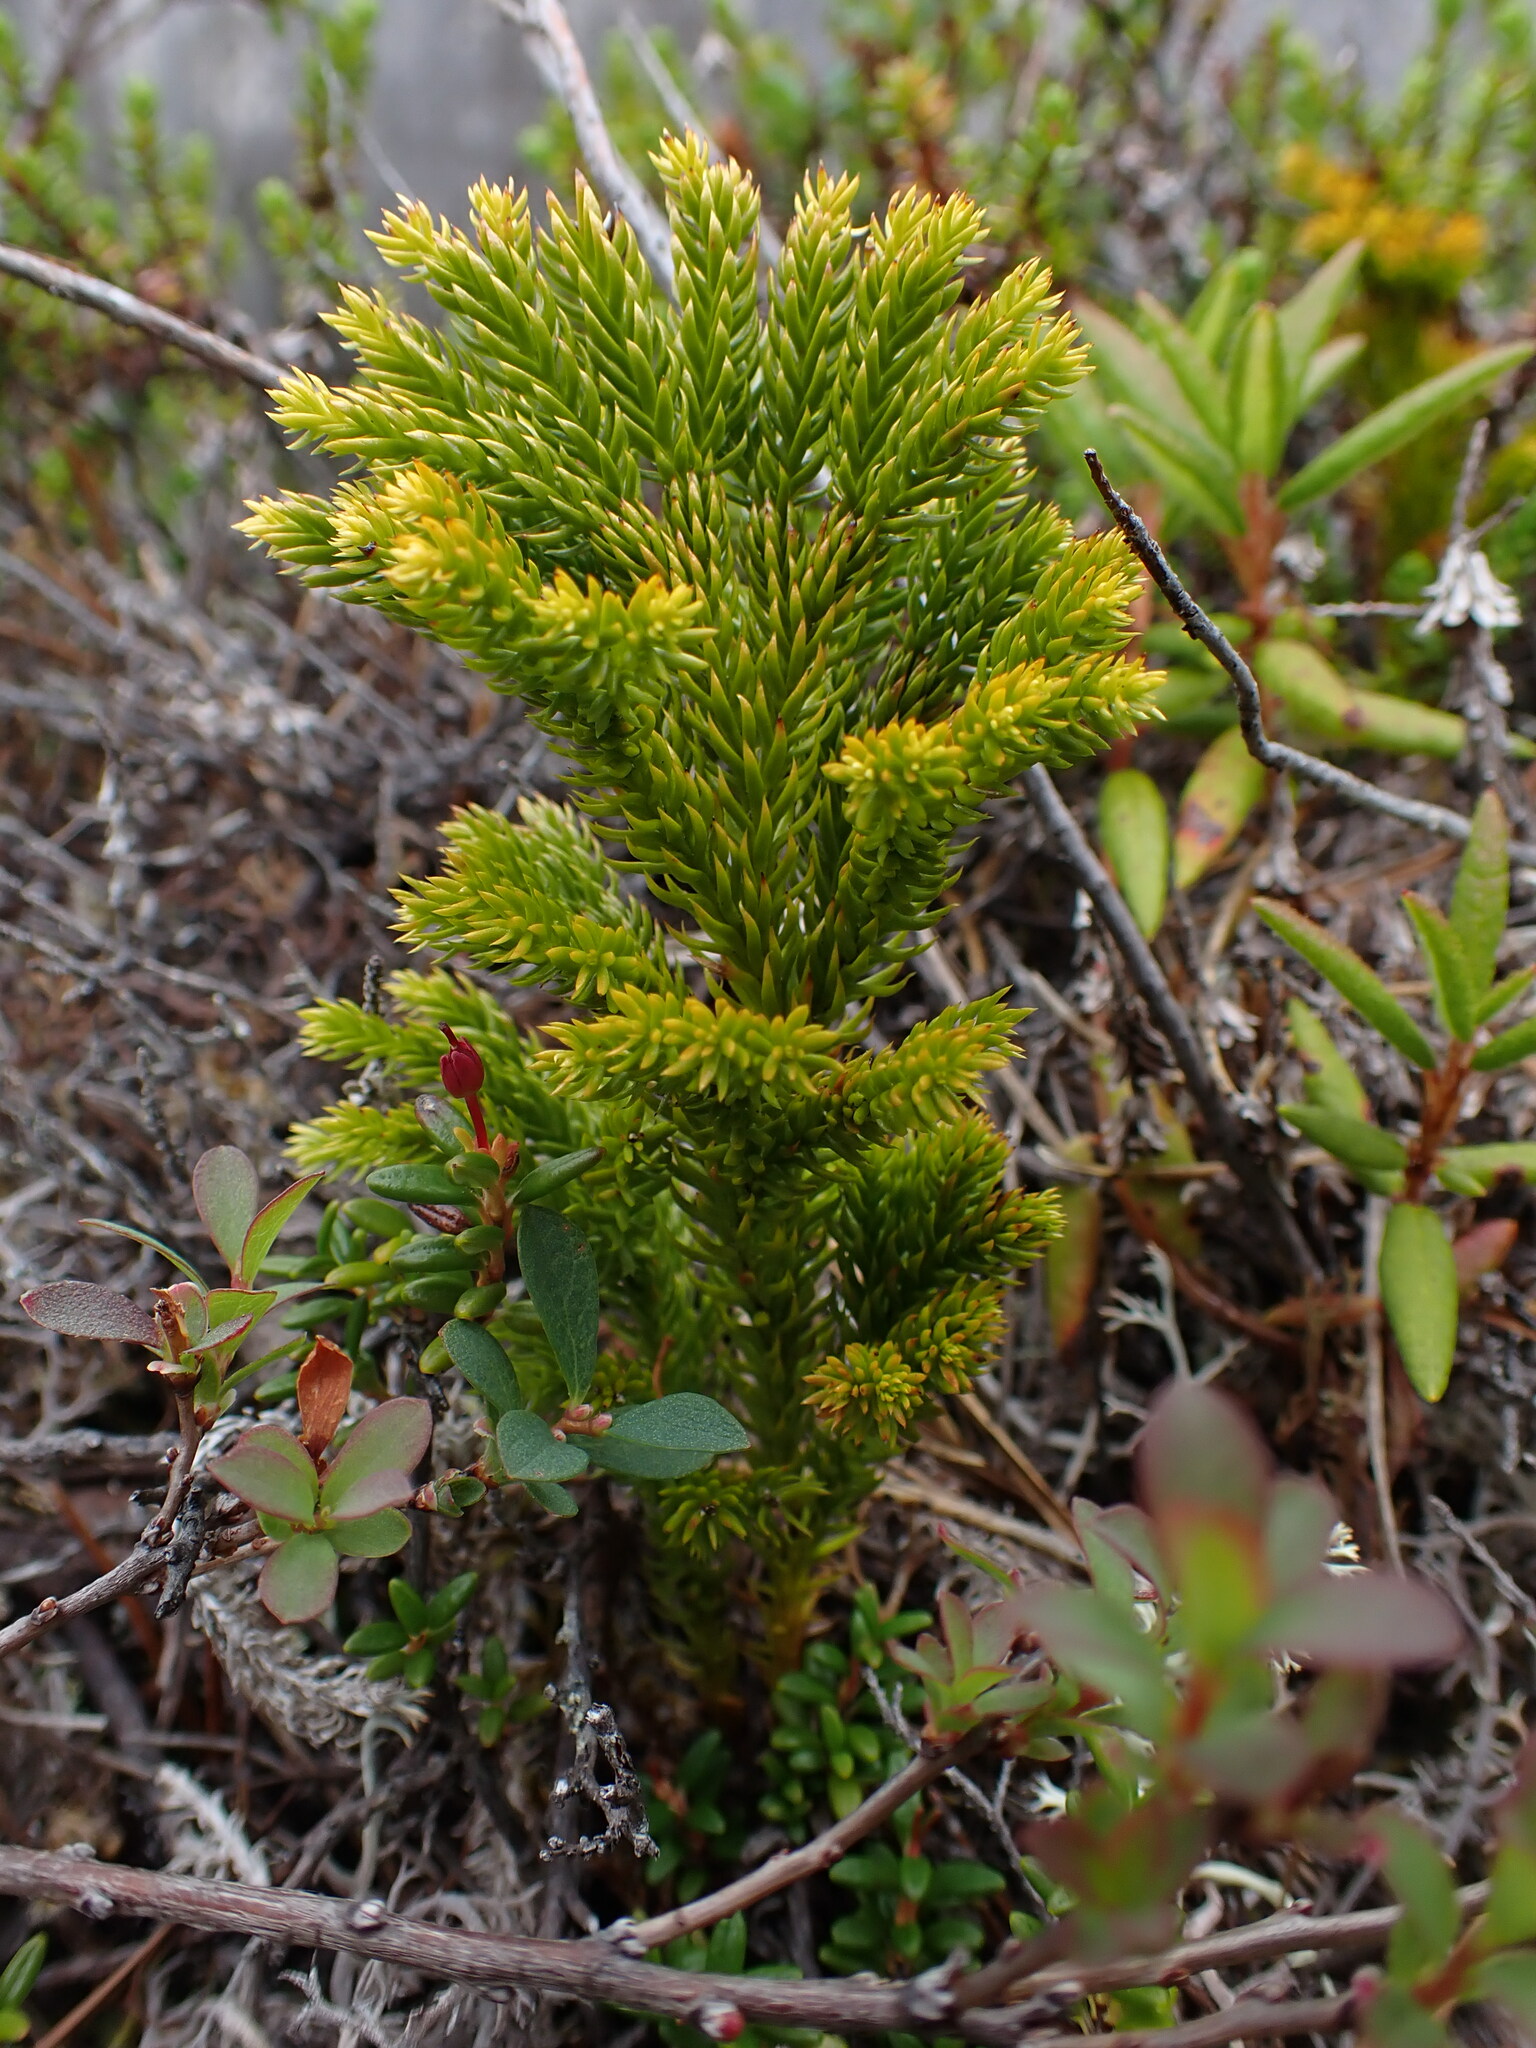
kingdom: Plantae
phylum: Tracheophyta
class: Lycopodiopsida
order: Lycopodiales
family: Lycopodiaceae
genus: Dendrolycopodium
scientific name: Dendrolycopodium dendroideum
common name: Northern tree-clubmoss
